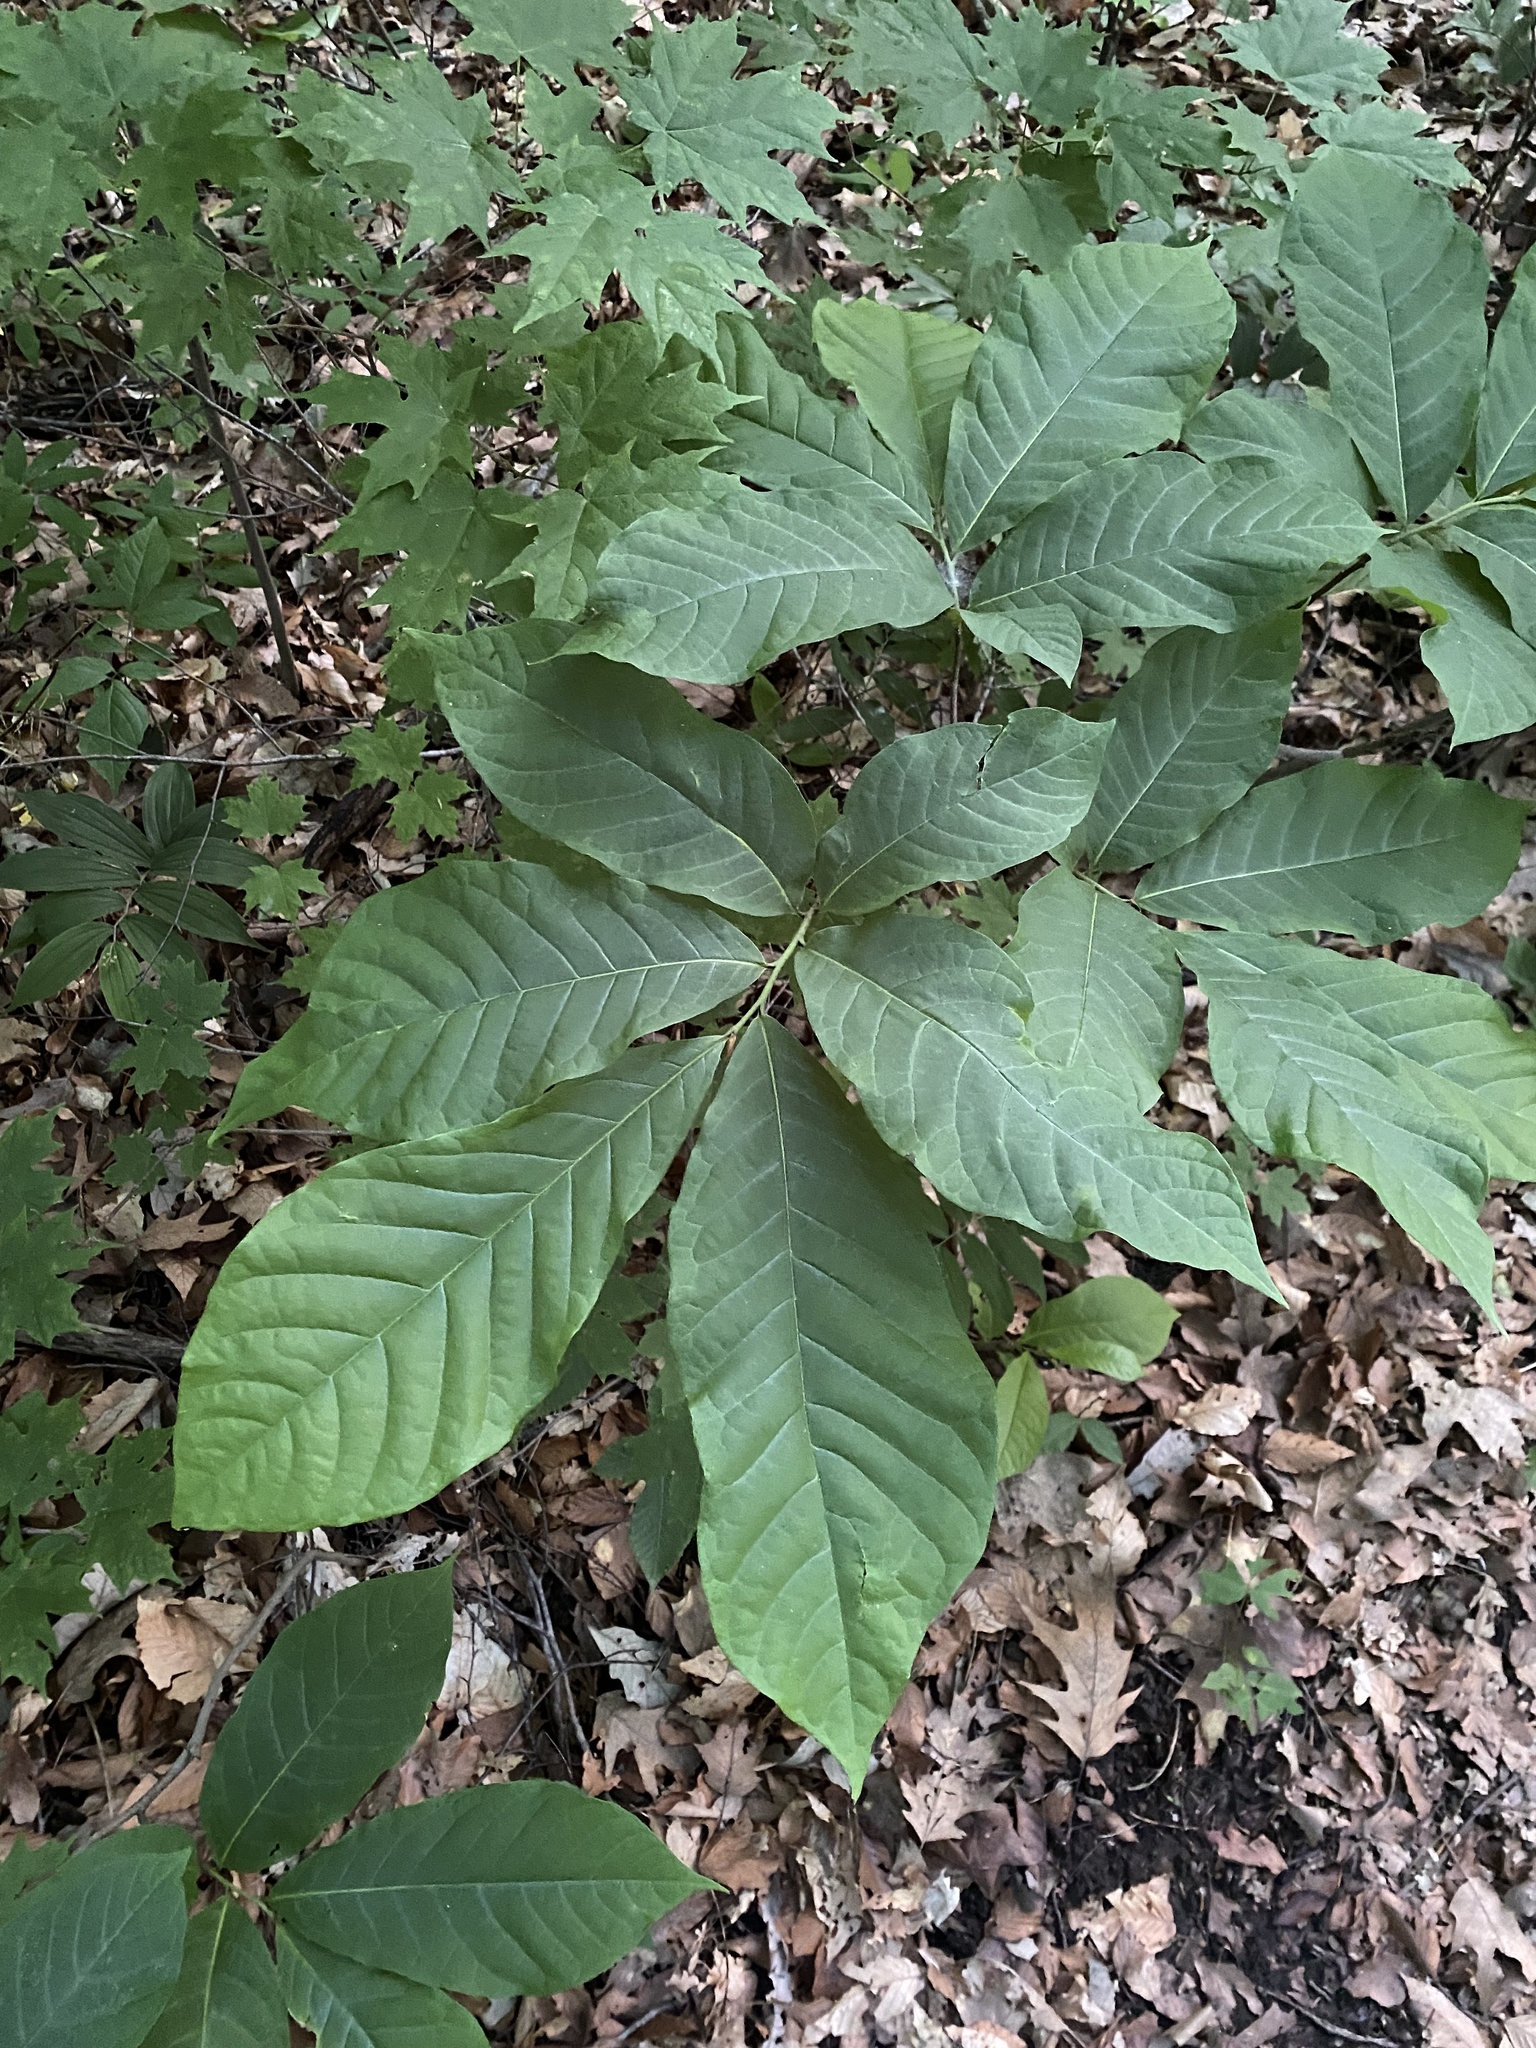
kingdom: Plantae
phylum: Tracheophyta
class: Magnoliopsida
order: Magnoliales
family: Annonaceae
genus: Asimina
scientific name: Asimina triloba
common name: Dog-banana
